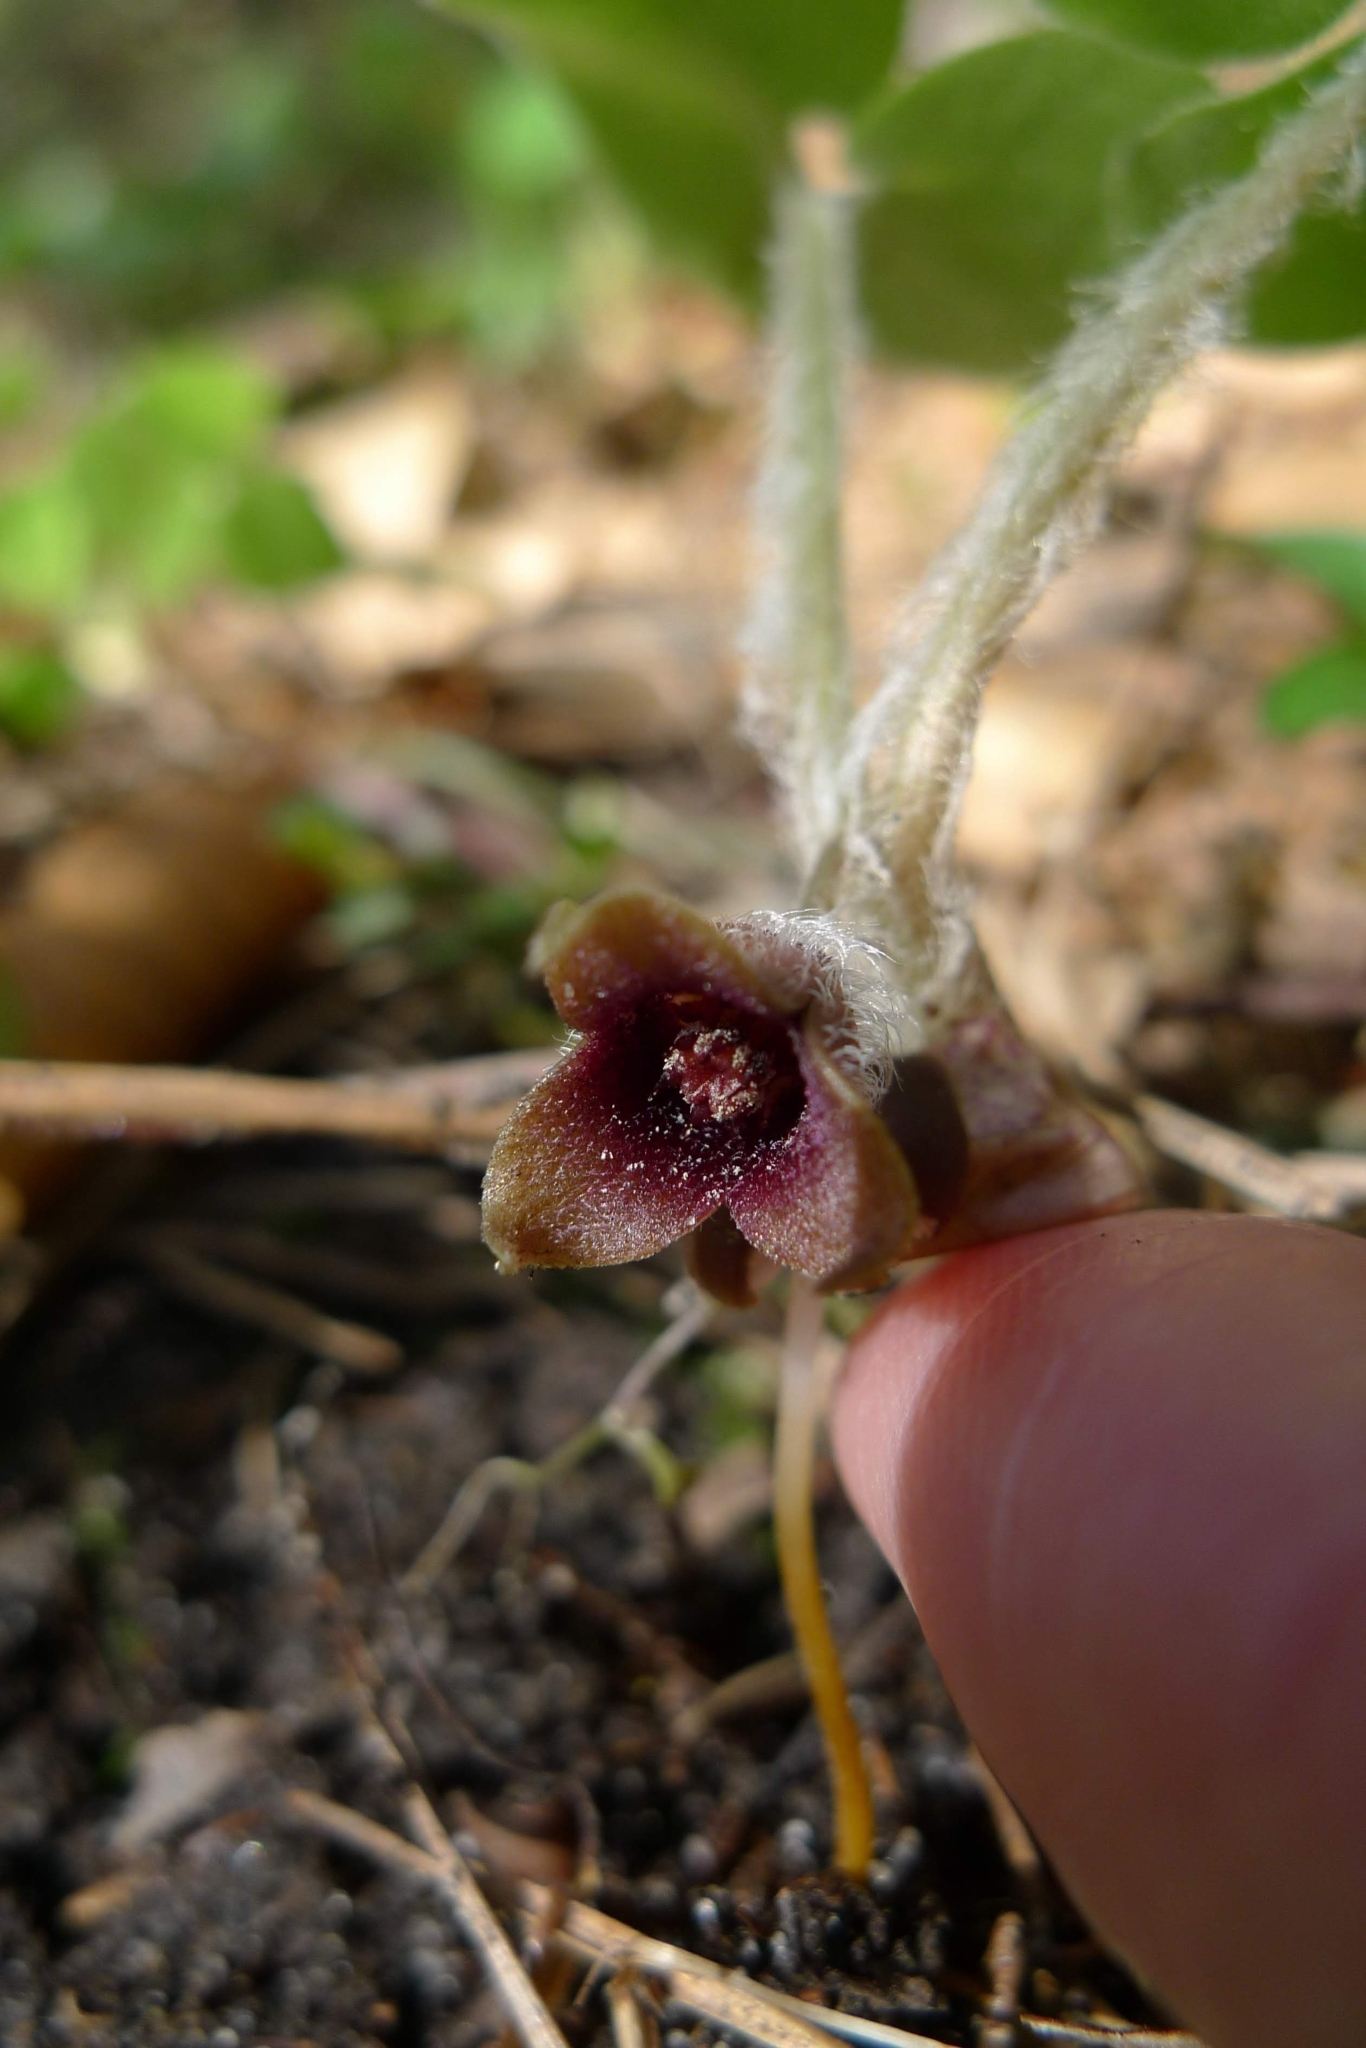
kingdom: Plantae
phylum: Tracheophyta
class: Magnoliopsida
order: Piperales
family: Aristolochiaceae
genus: Asarum
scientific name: Asarum europaeum
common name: Asarabacca
